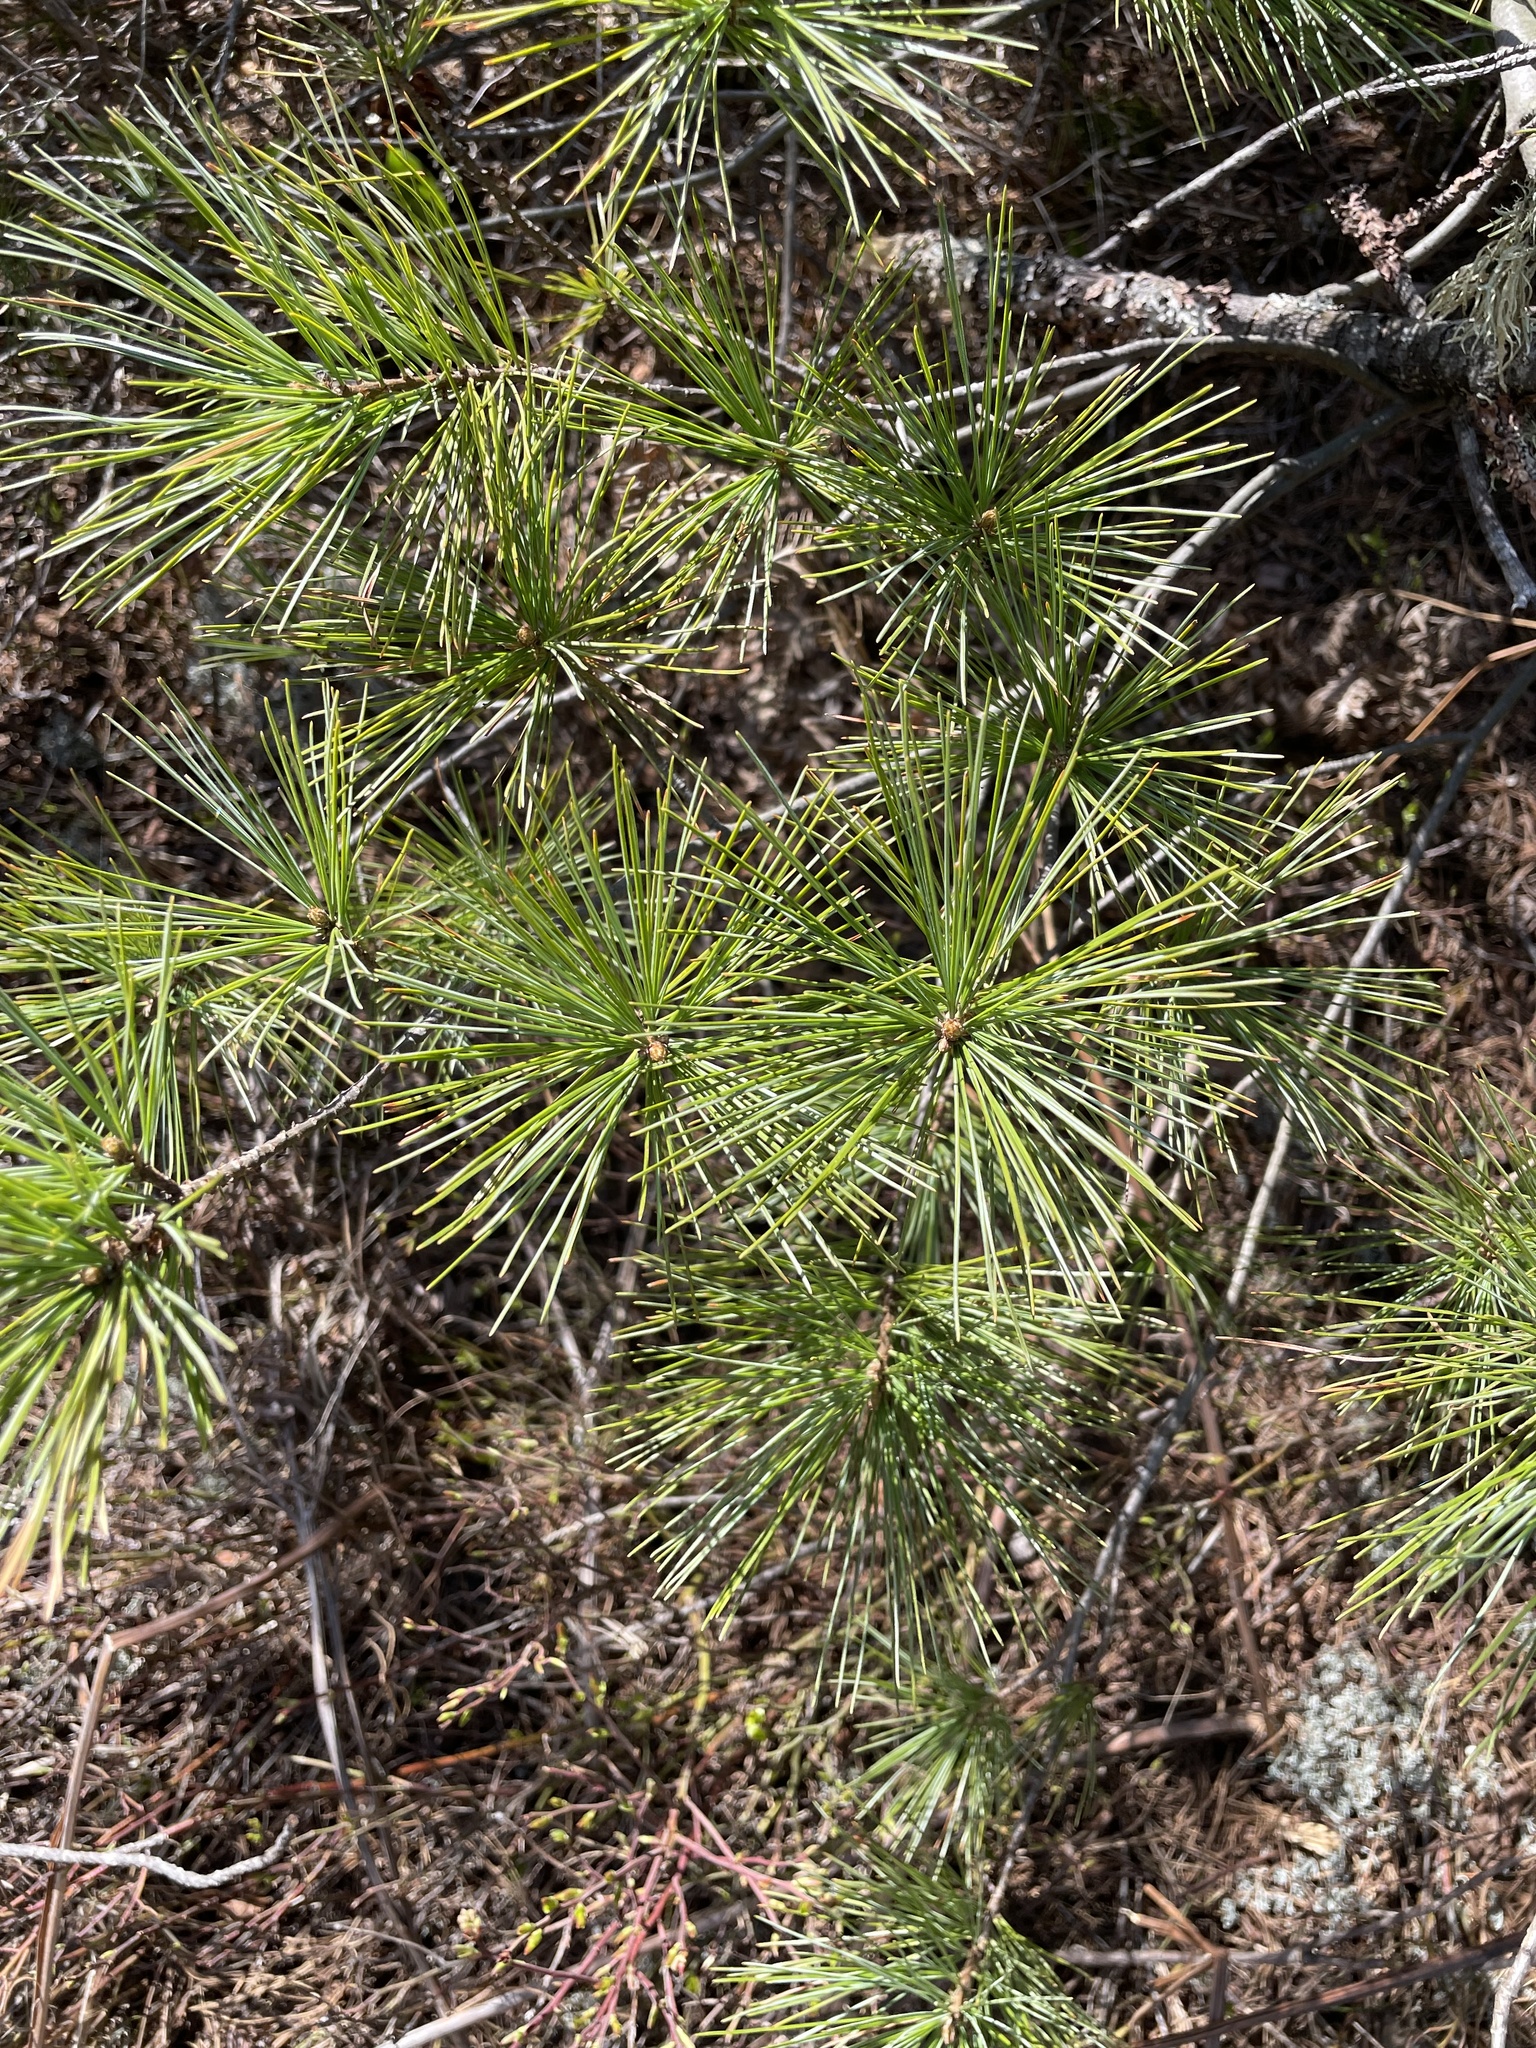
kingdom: Plantae
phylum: Tracheophyta
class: Pinopsida
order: Pinales
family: Pinaceae
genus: Pinus
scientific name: Pinus strobus
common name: Weymouth pine
